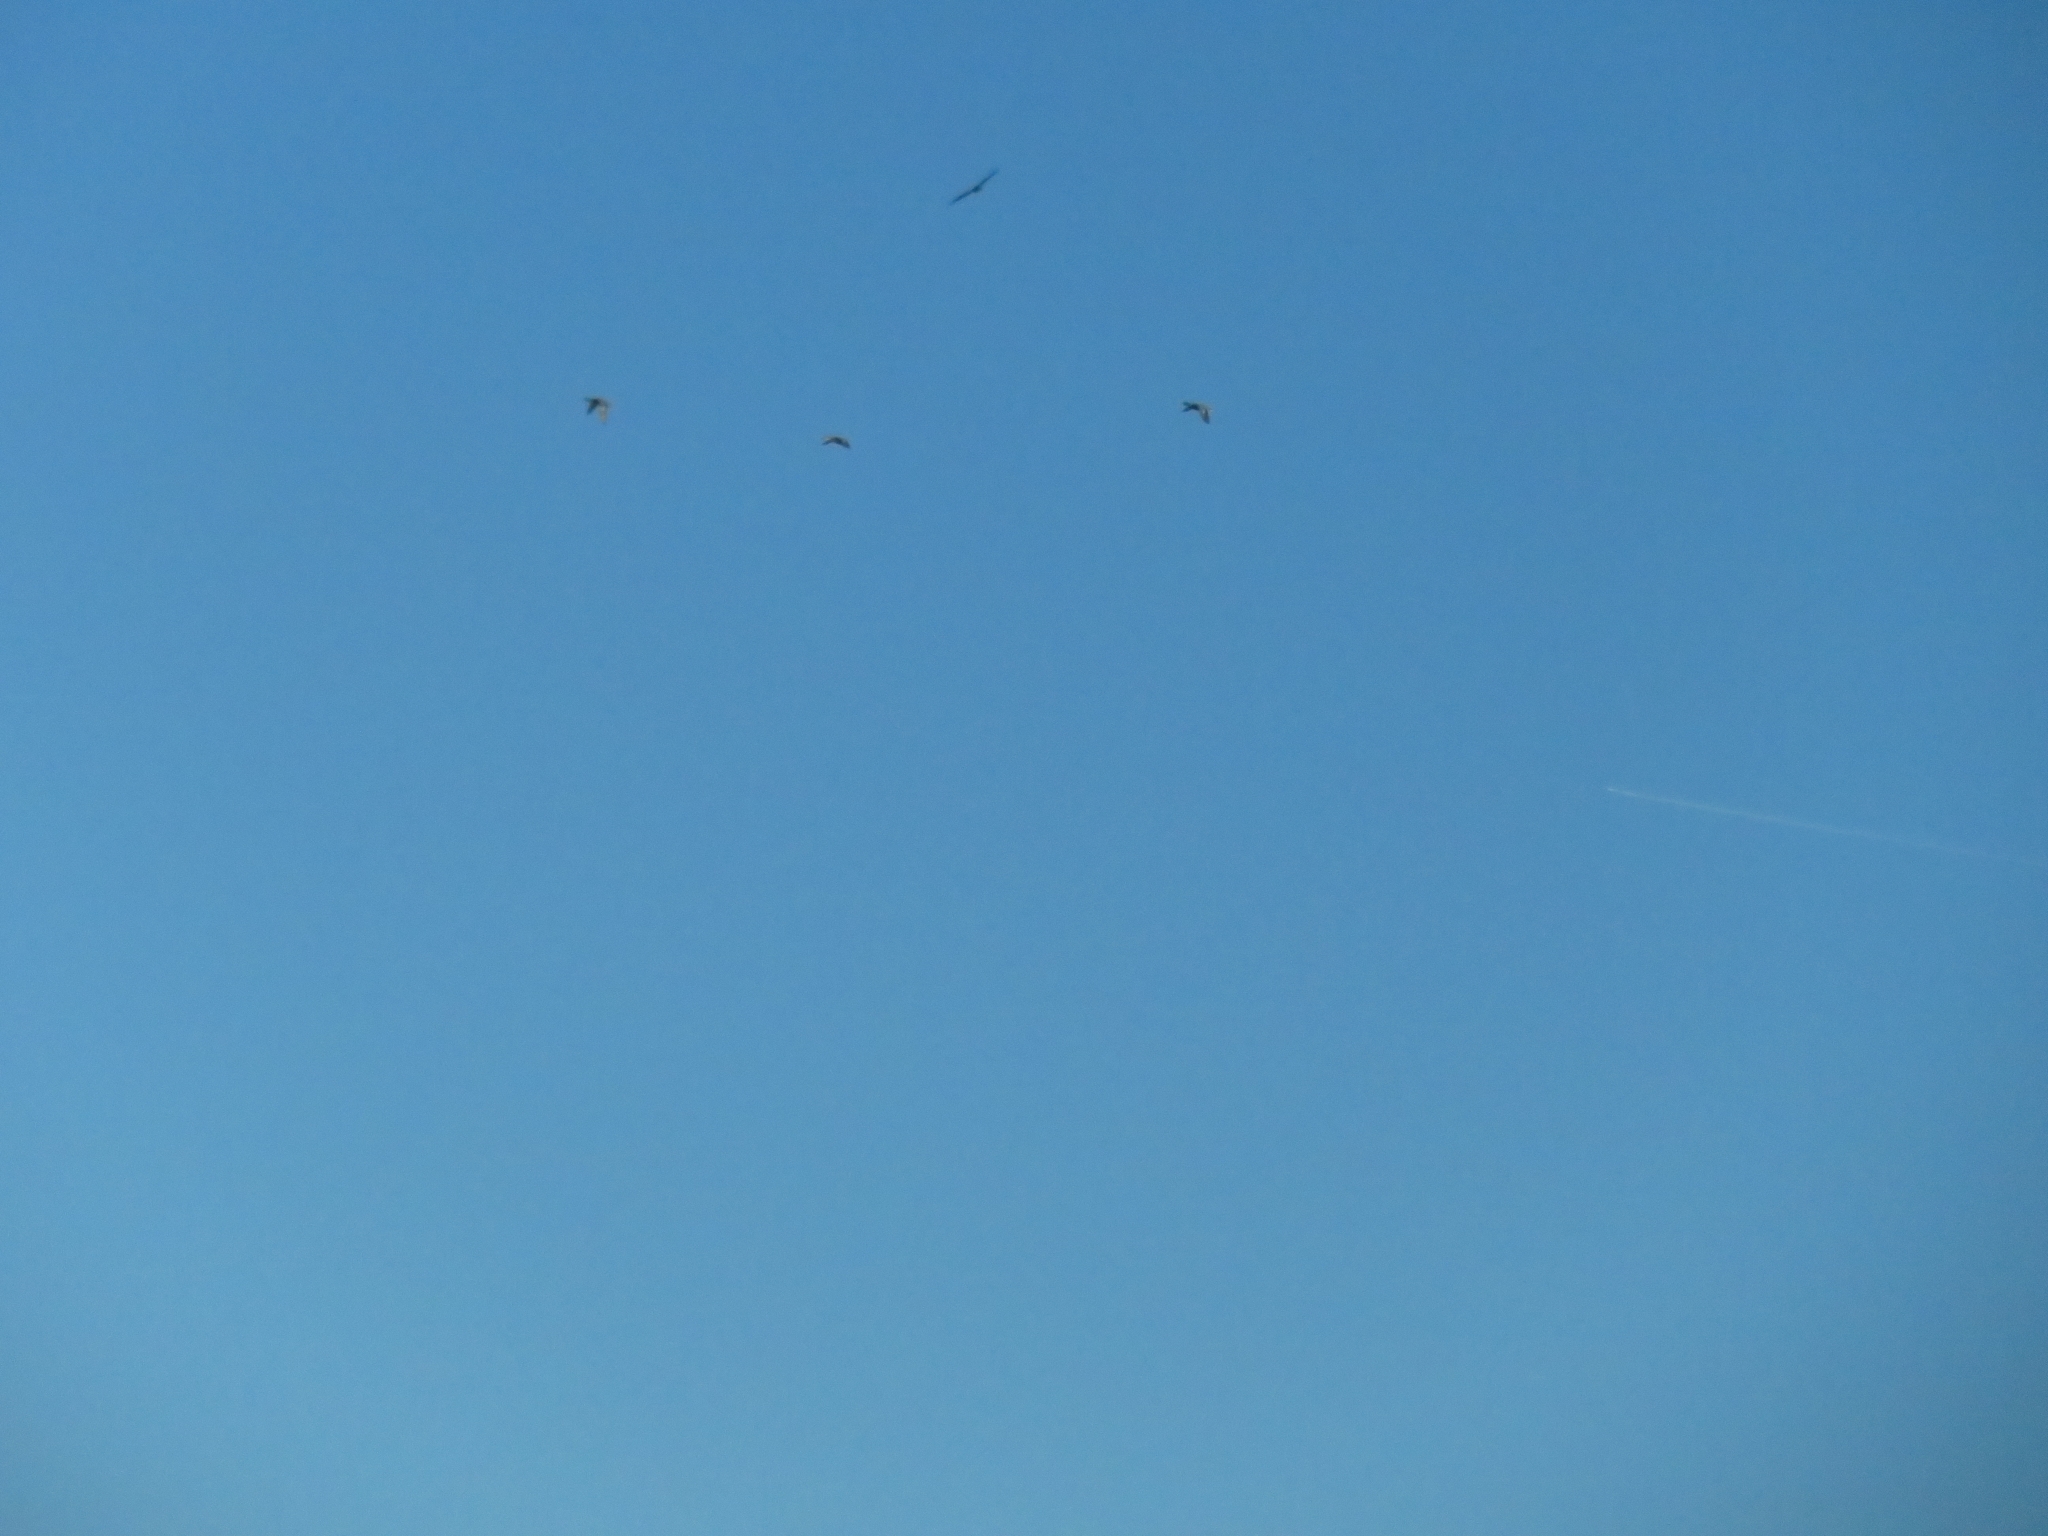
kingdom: Animalia
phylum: Chordata
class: Aves
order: Accipitriformes
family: Accipitridae
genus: Buteo
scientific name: Buteo jamaicensis
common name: Red-tailed hawk
